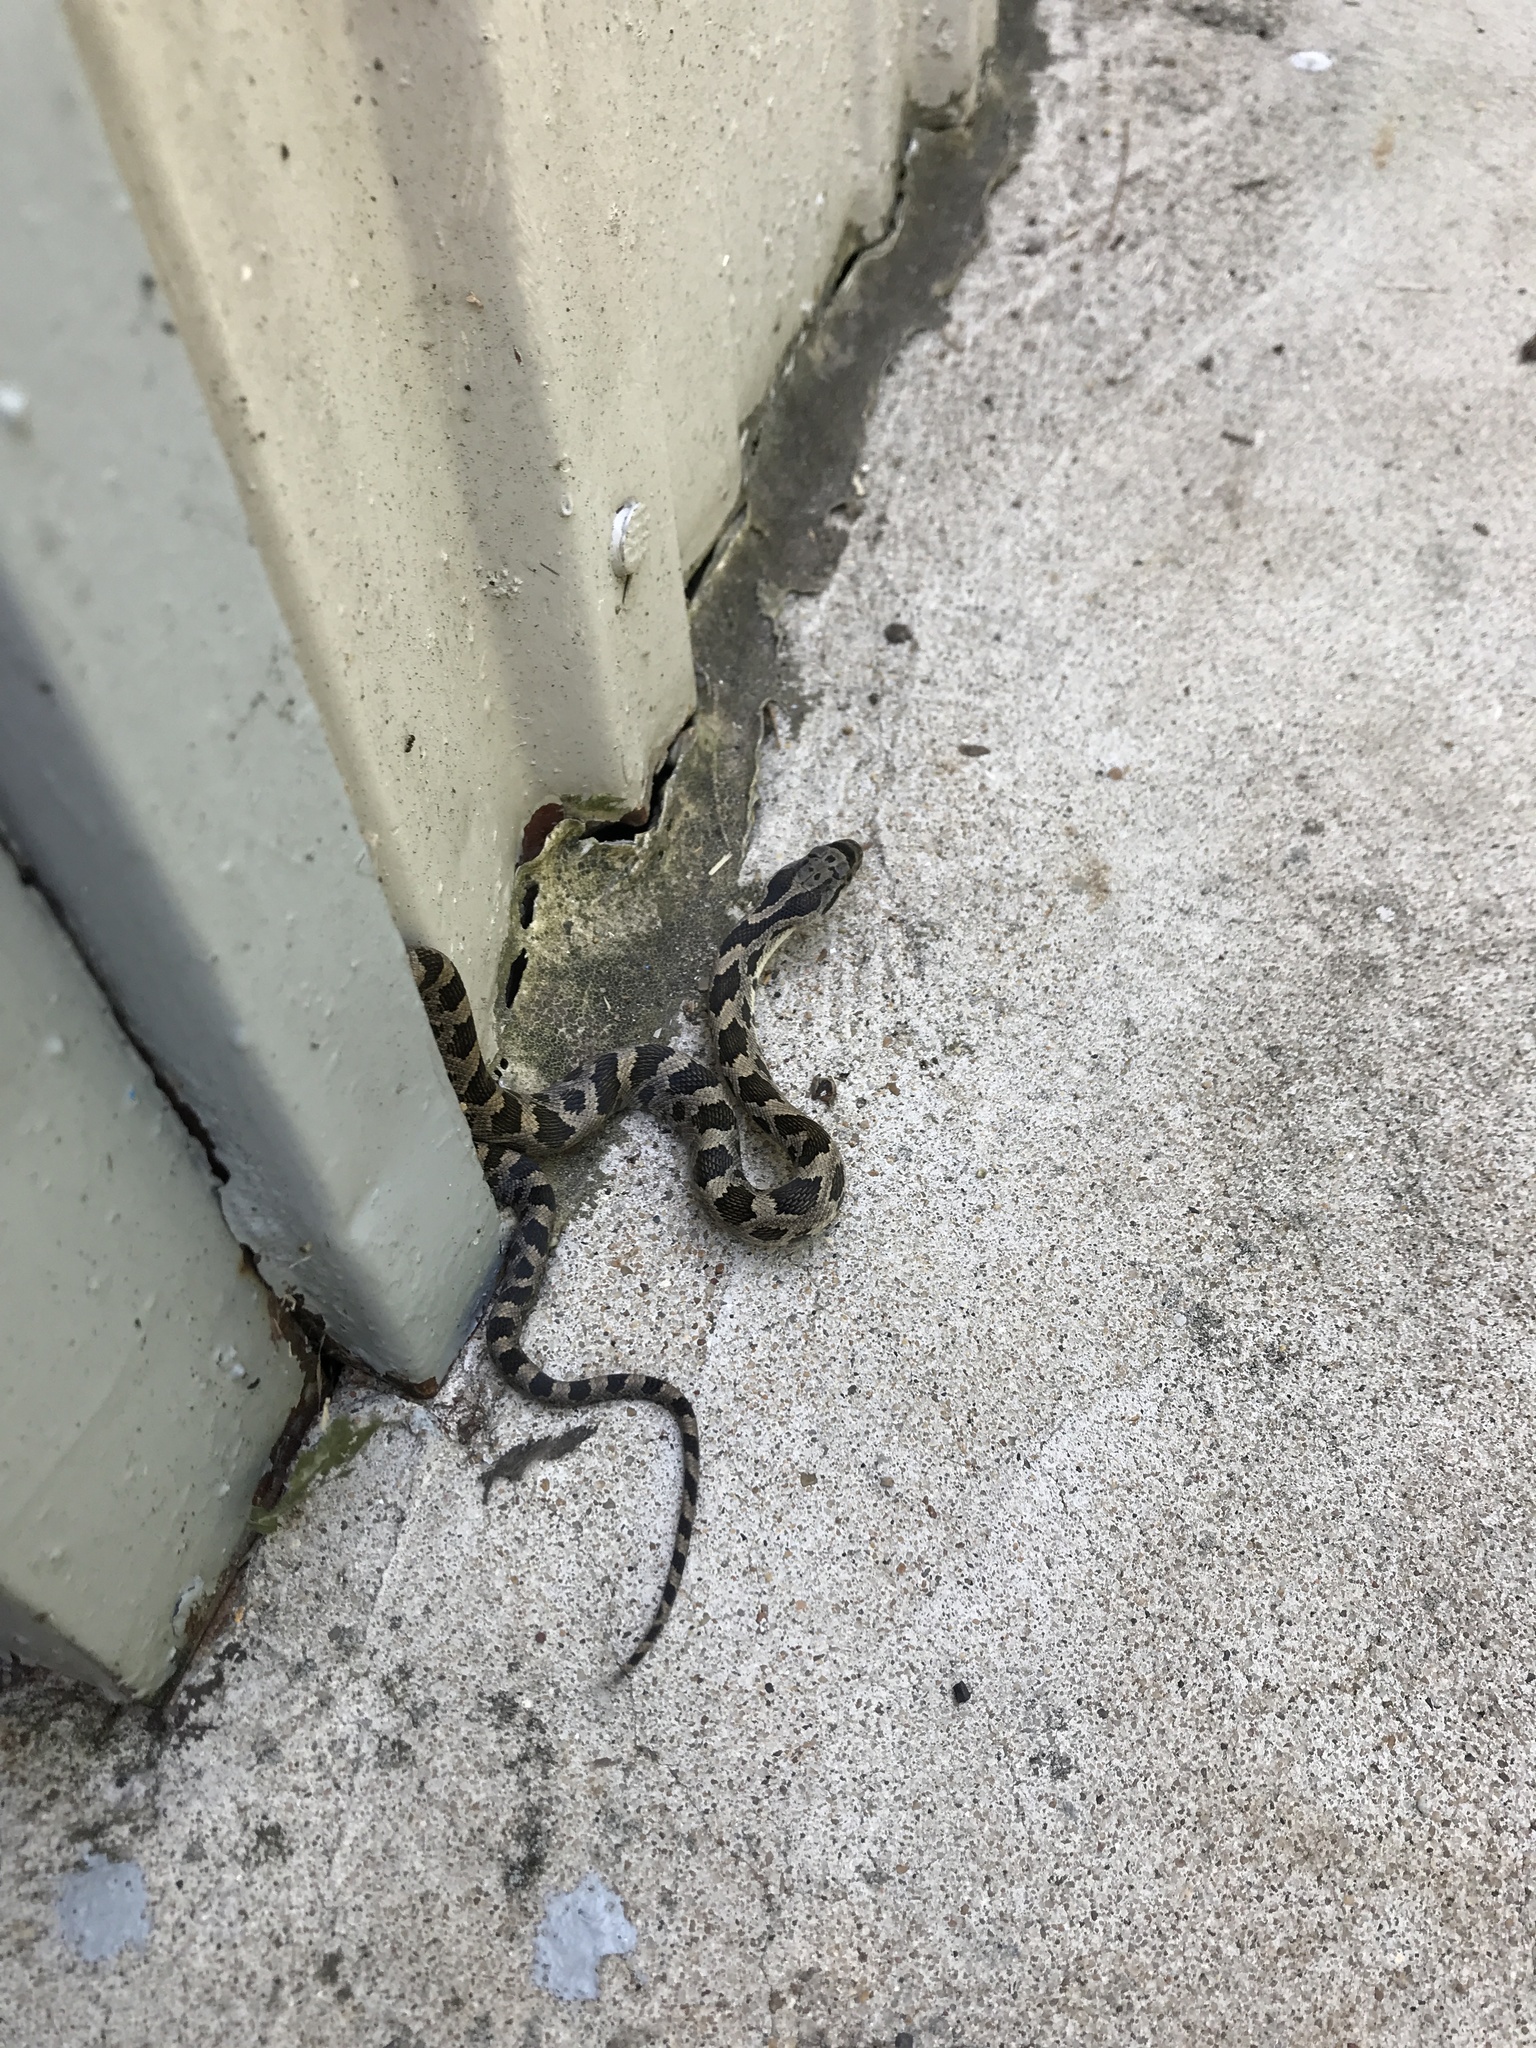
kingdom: Animalia
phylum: Chordata
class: Squamata
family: Colubridae
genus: Pantherophis
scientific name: Pantherophis obsoletus
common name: Black rat snake
